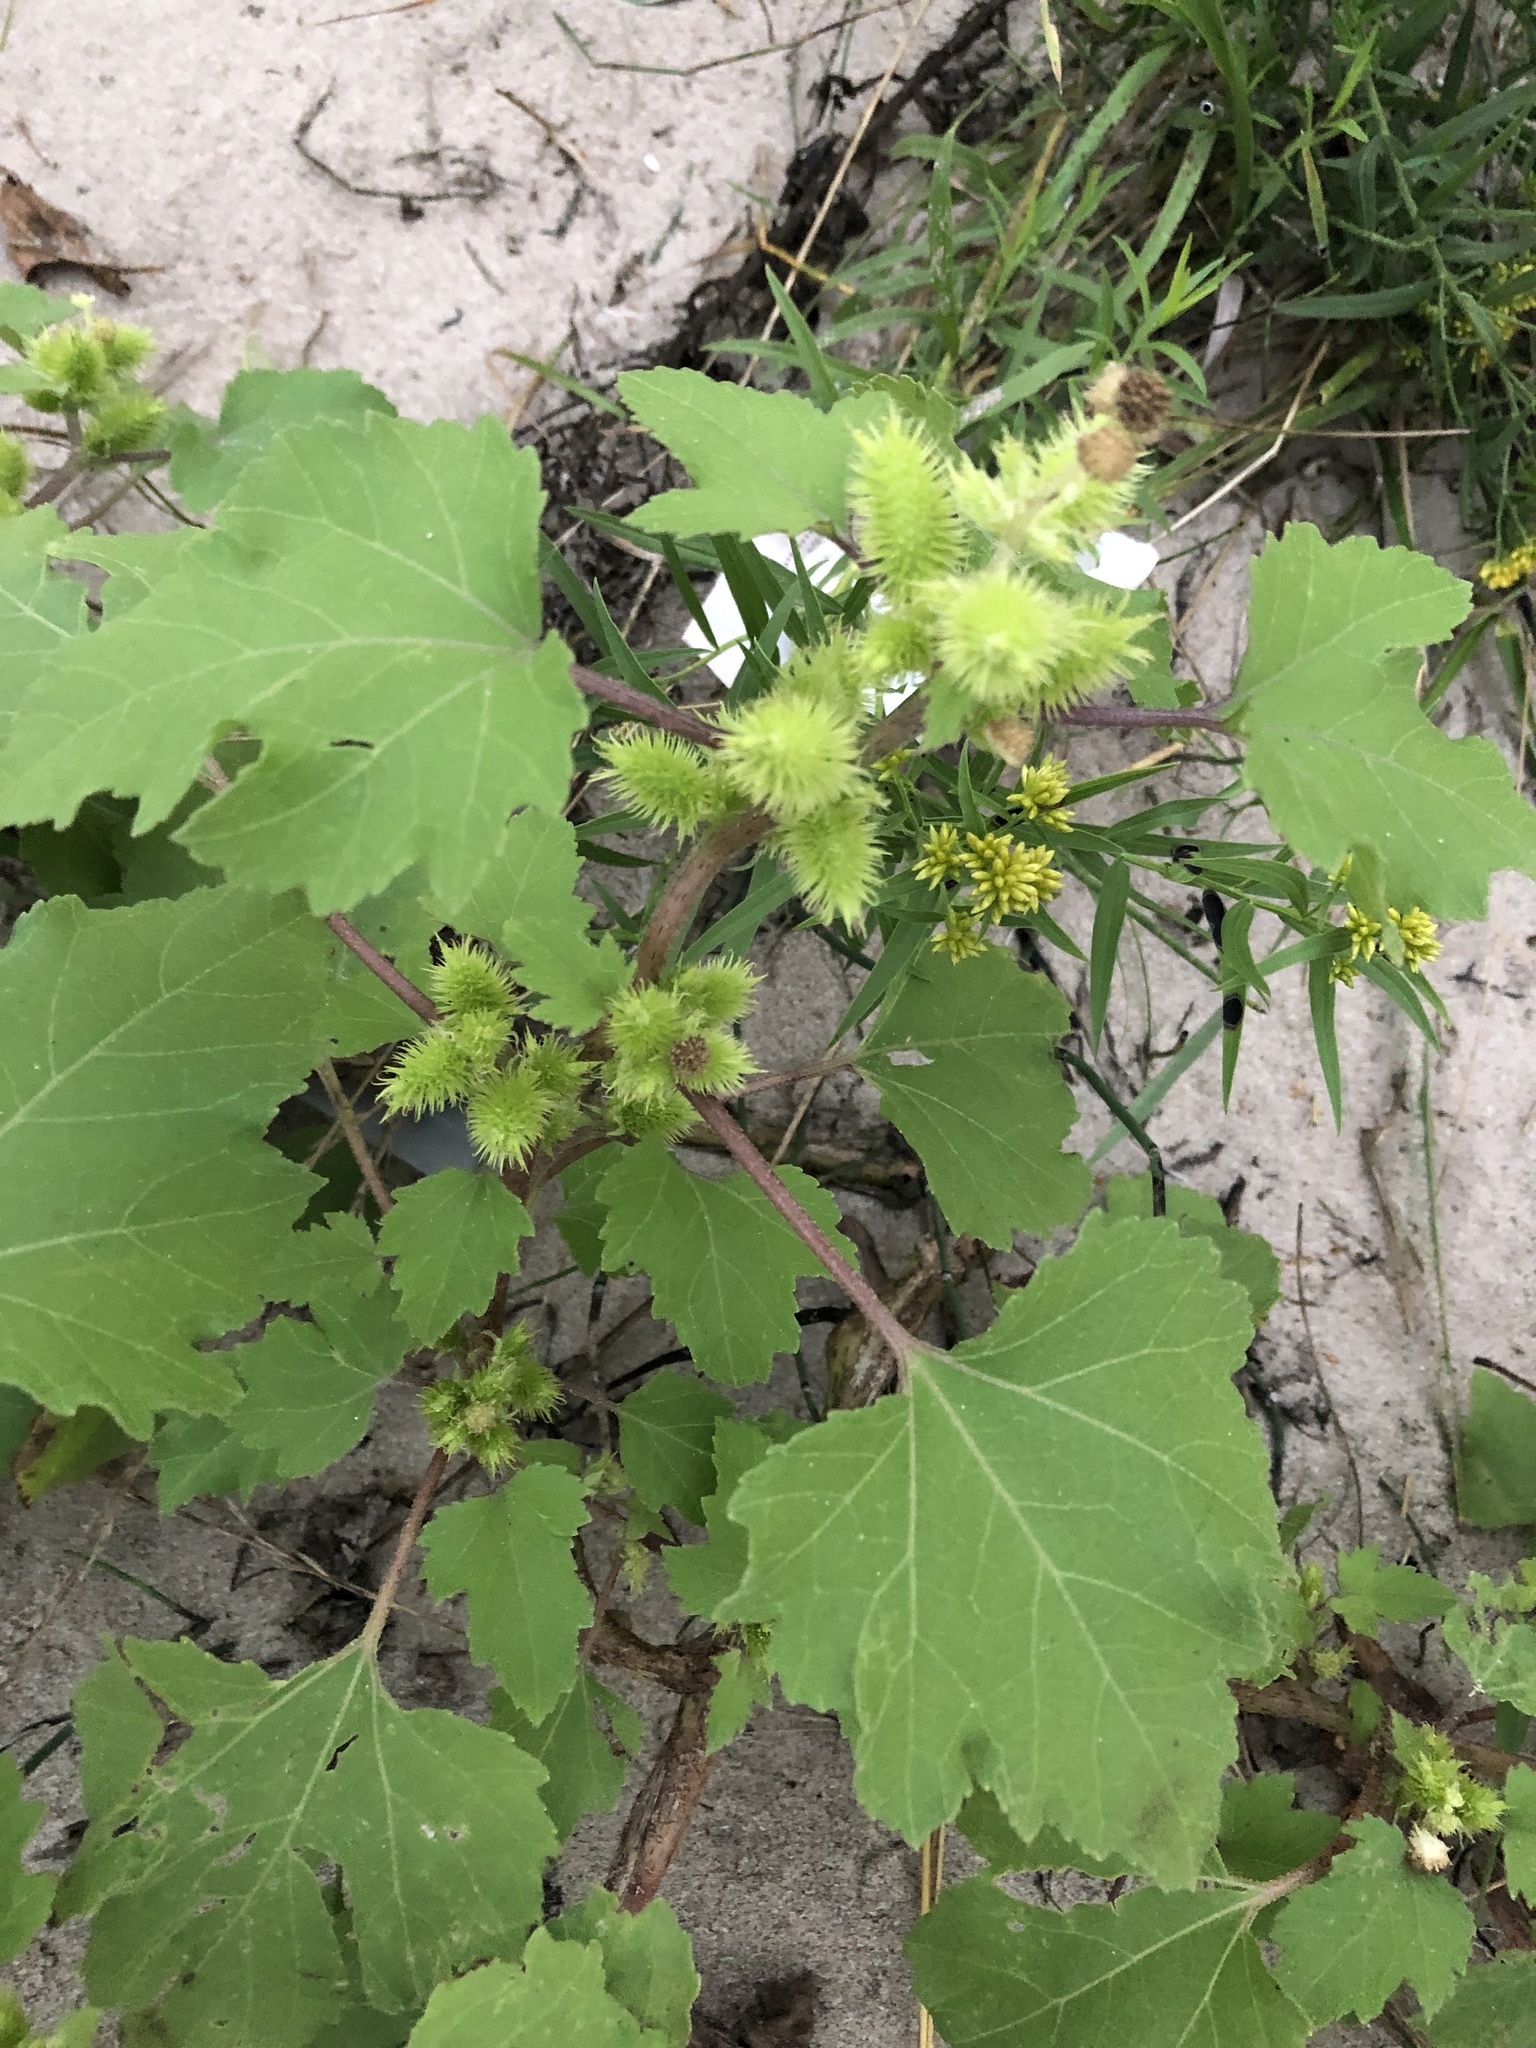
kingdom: Plantae
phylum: Tracheophyta
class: Magnoliopsida
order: Asterales
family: Asteraceae
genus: Xanthium
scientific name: Xanthium strumarium
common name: Rough cocklebur
